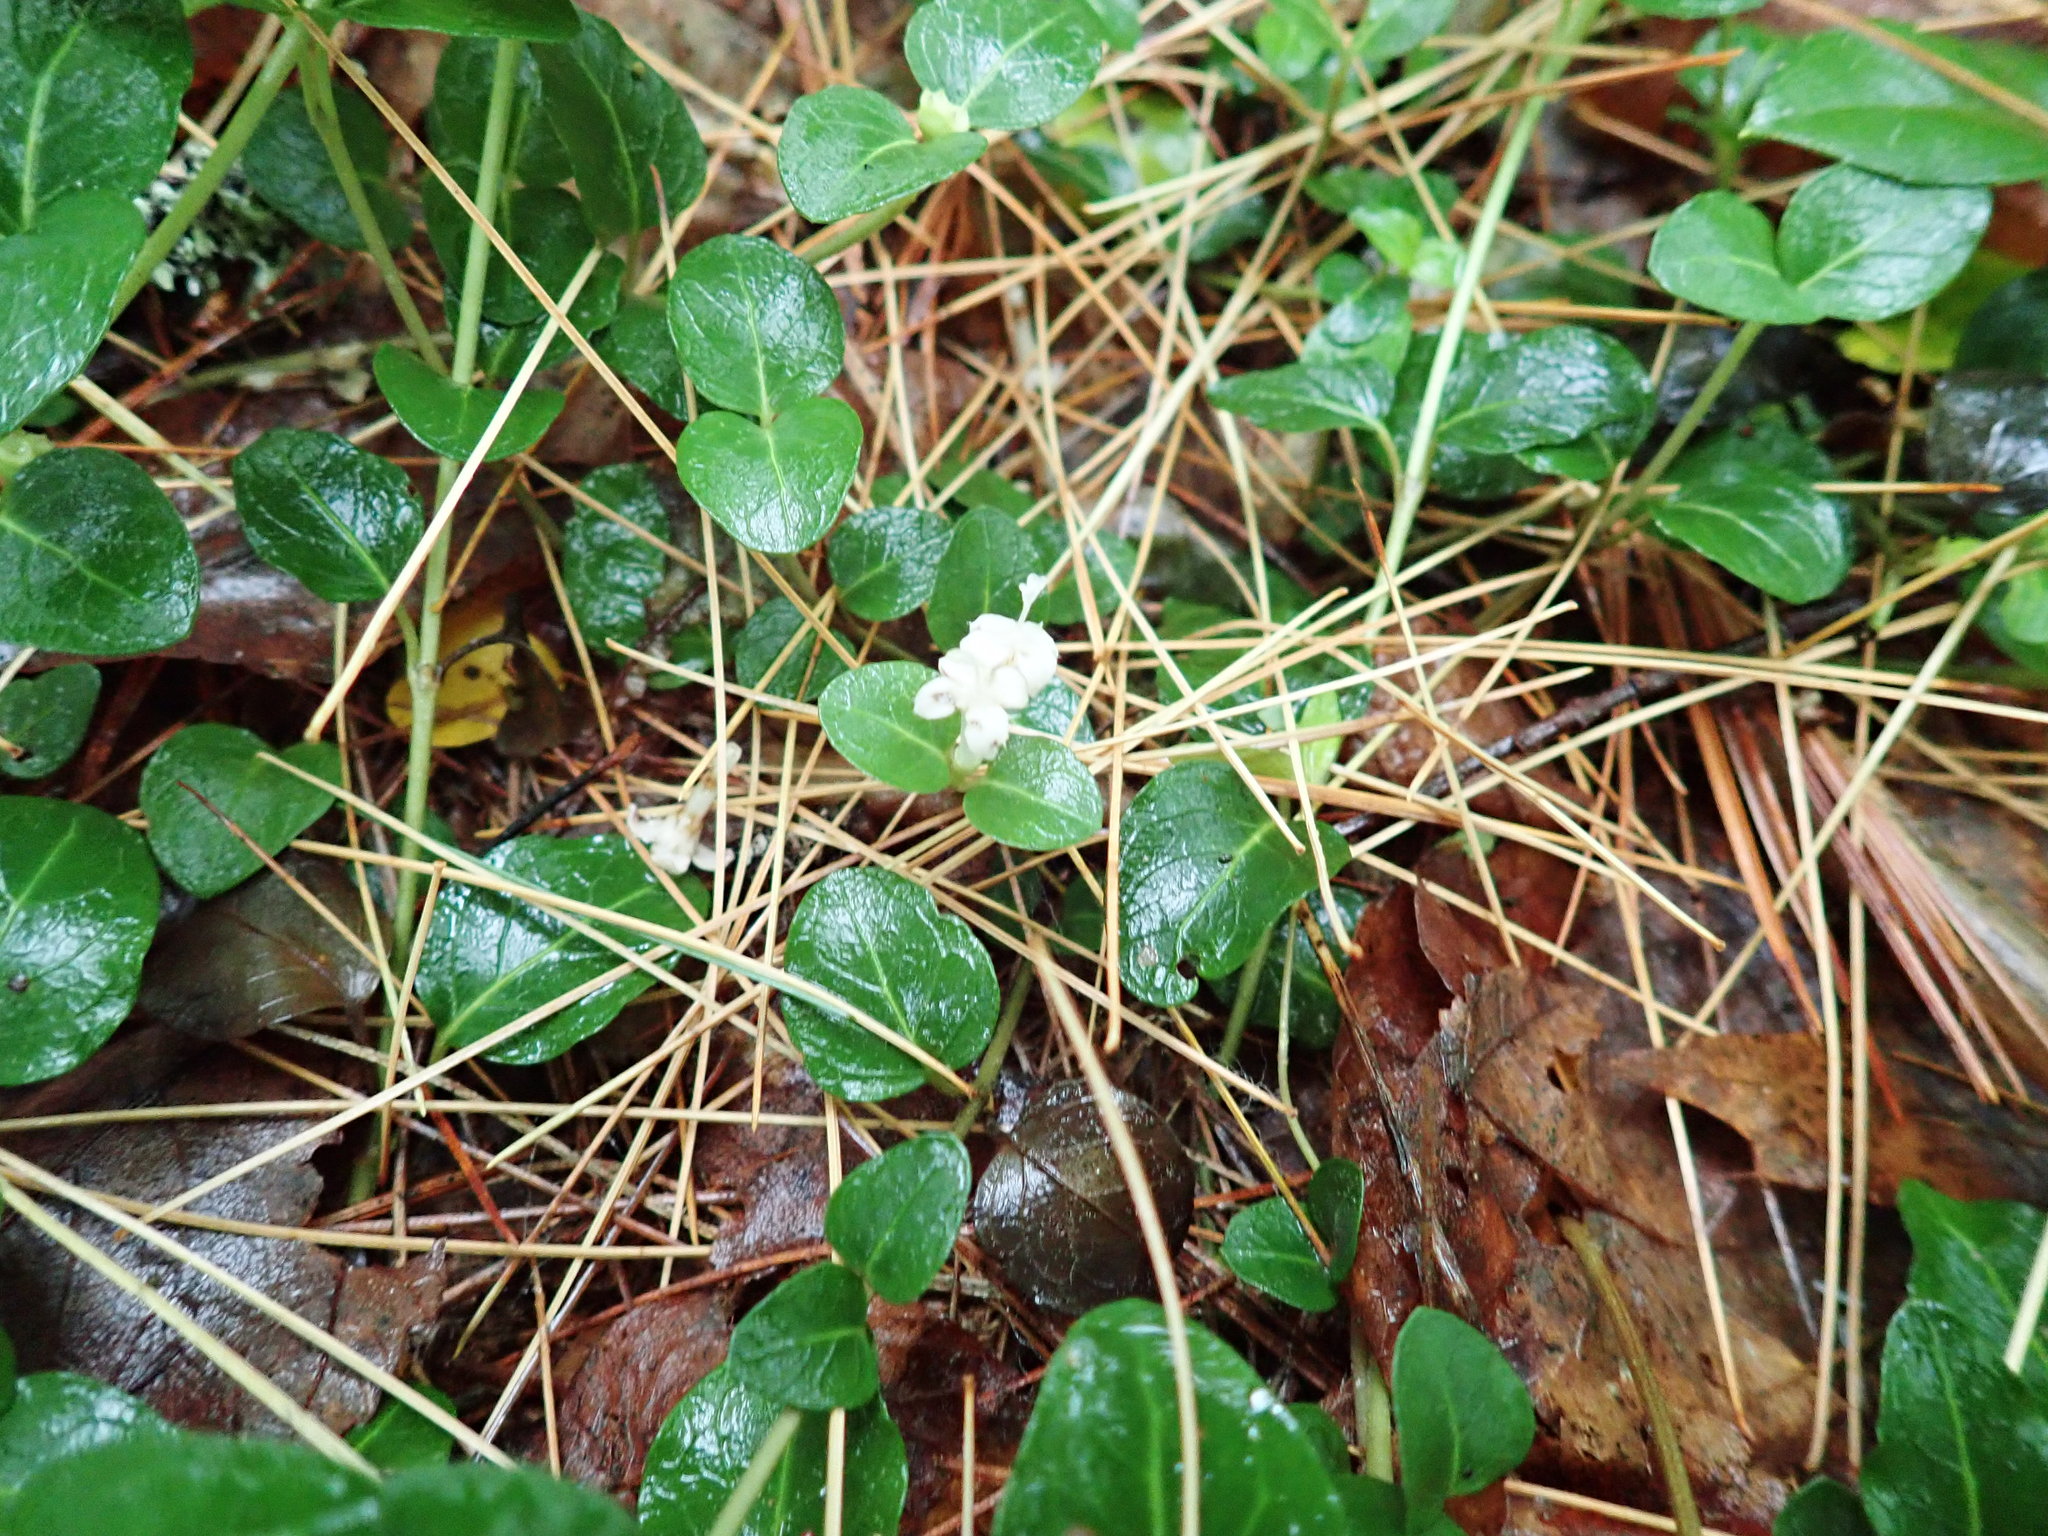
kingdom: Plantae
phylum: Tracheophyta
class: Magnoliopsida
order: Gentianales
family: Rubiaceae
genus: Mitchella
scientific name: Mitchella repens
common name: Partridge-berry
